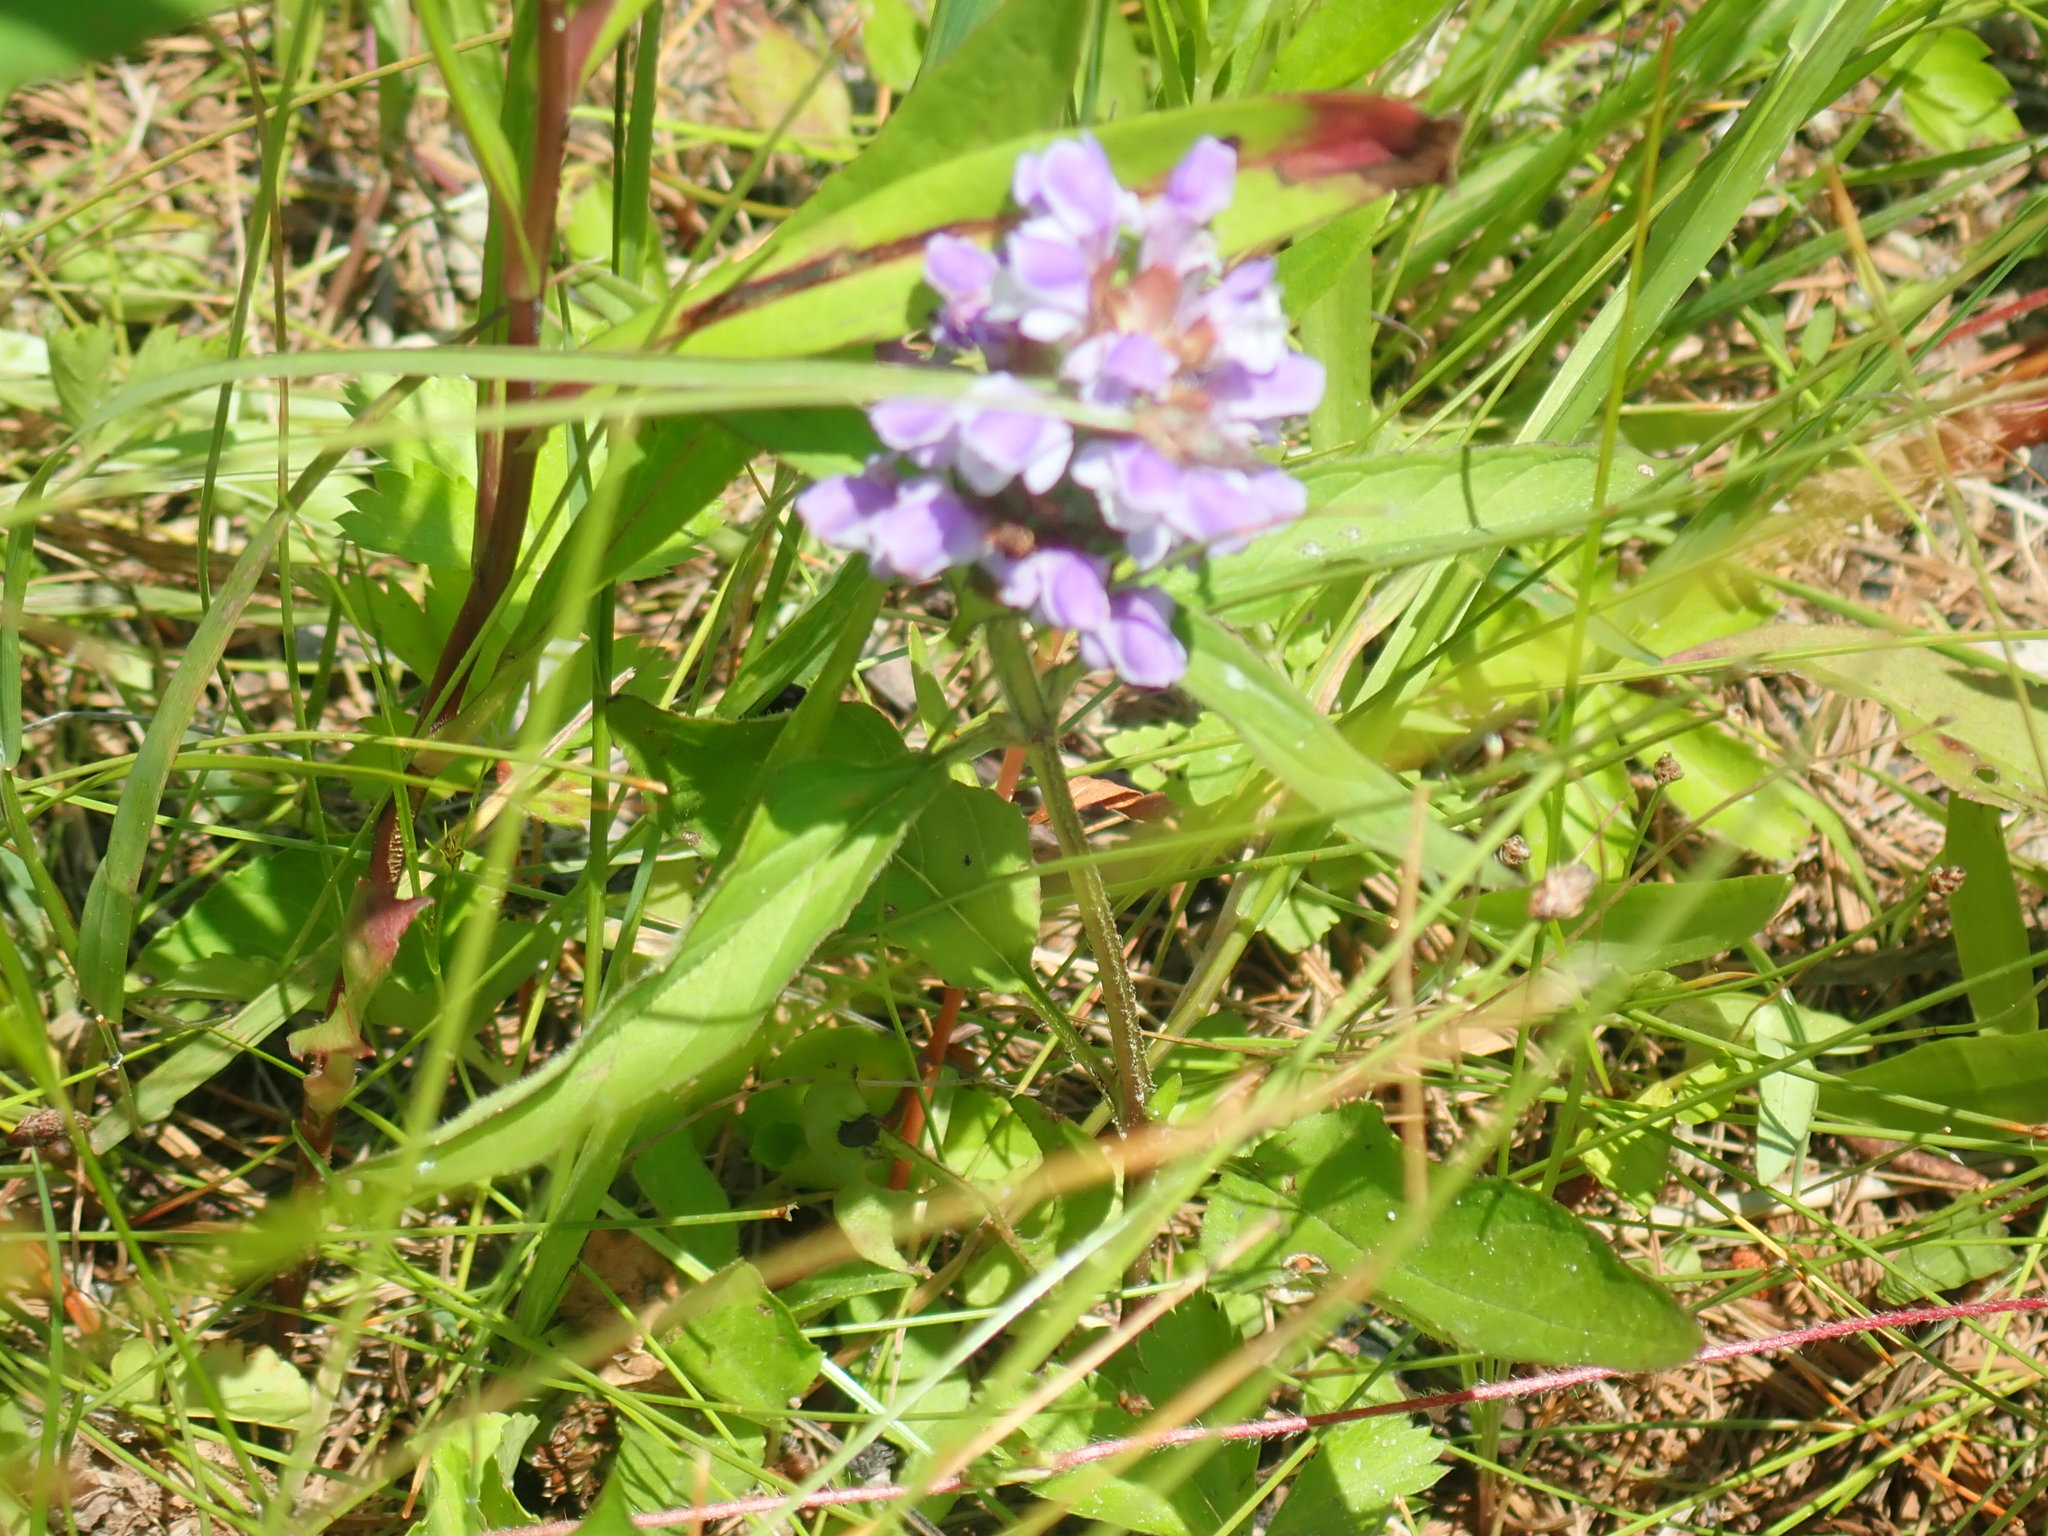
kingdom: Plantae
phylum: Tracheophyta
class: Magnoliopsida
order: Lamiales
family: Lamiaceae
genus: Prunella
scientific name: Prunella vulgaris
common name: Heal-all
